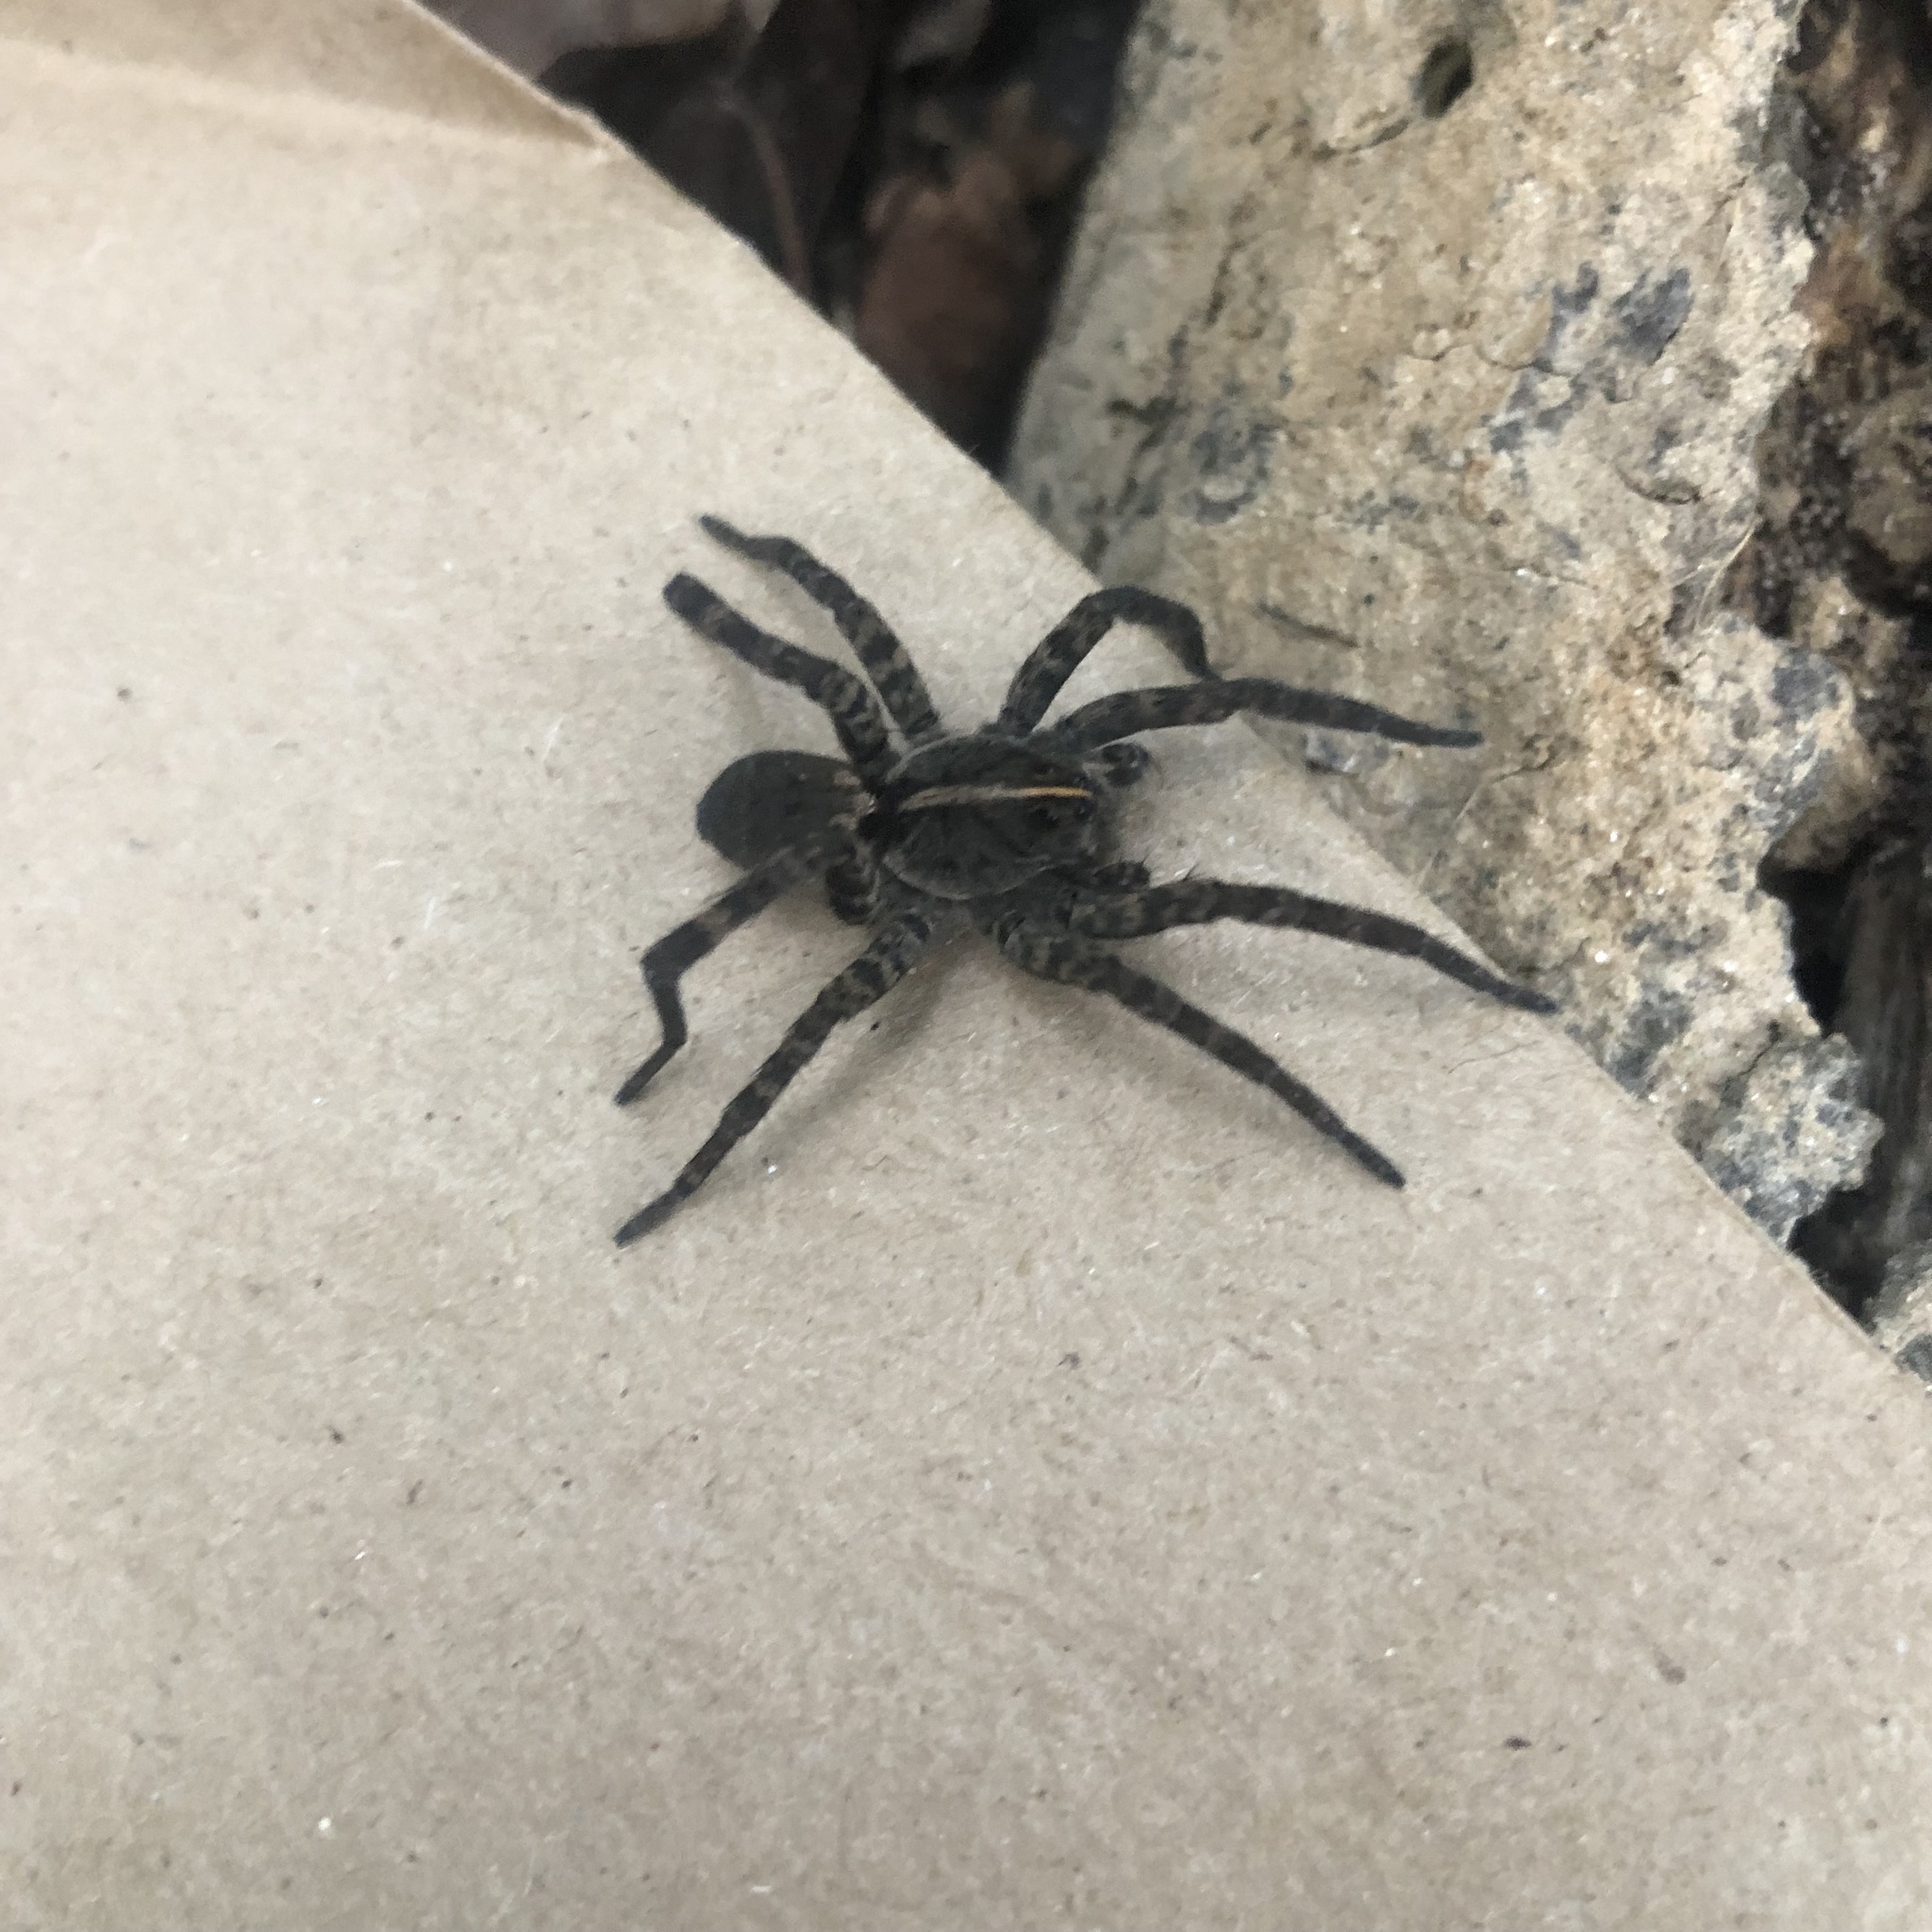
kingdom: Animalia
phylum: Arthropoda
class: Arachnida
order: Araneae
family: Lycosidae
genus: Tigrosa
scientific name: Tigrosa georgicola
